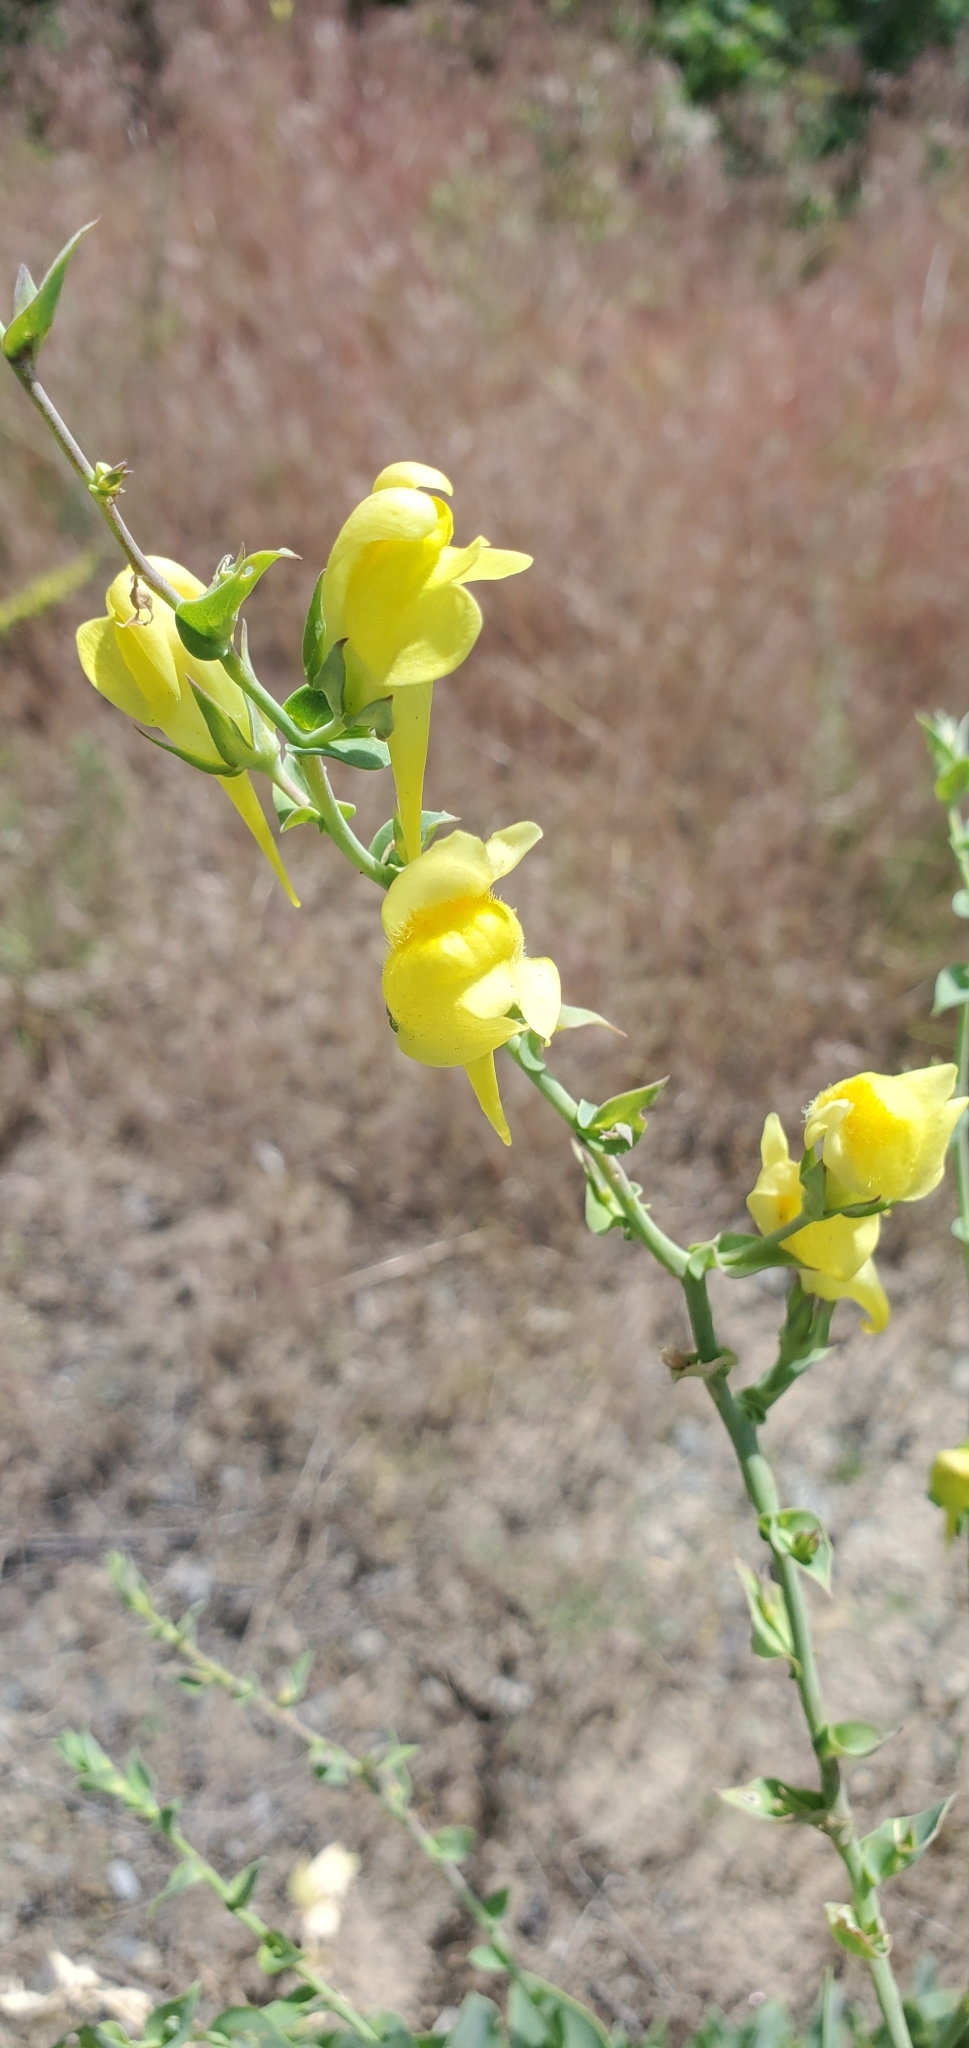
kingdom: Plantae
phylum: Tracheophyta
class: Magnoliopsida
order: Lamiales
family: Plantaginaceae
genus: Linaria
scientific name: Linaria dalmatica
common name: Dalmatian toadflax
